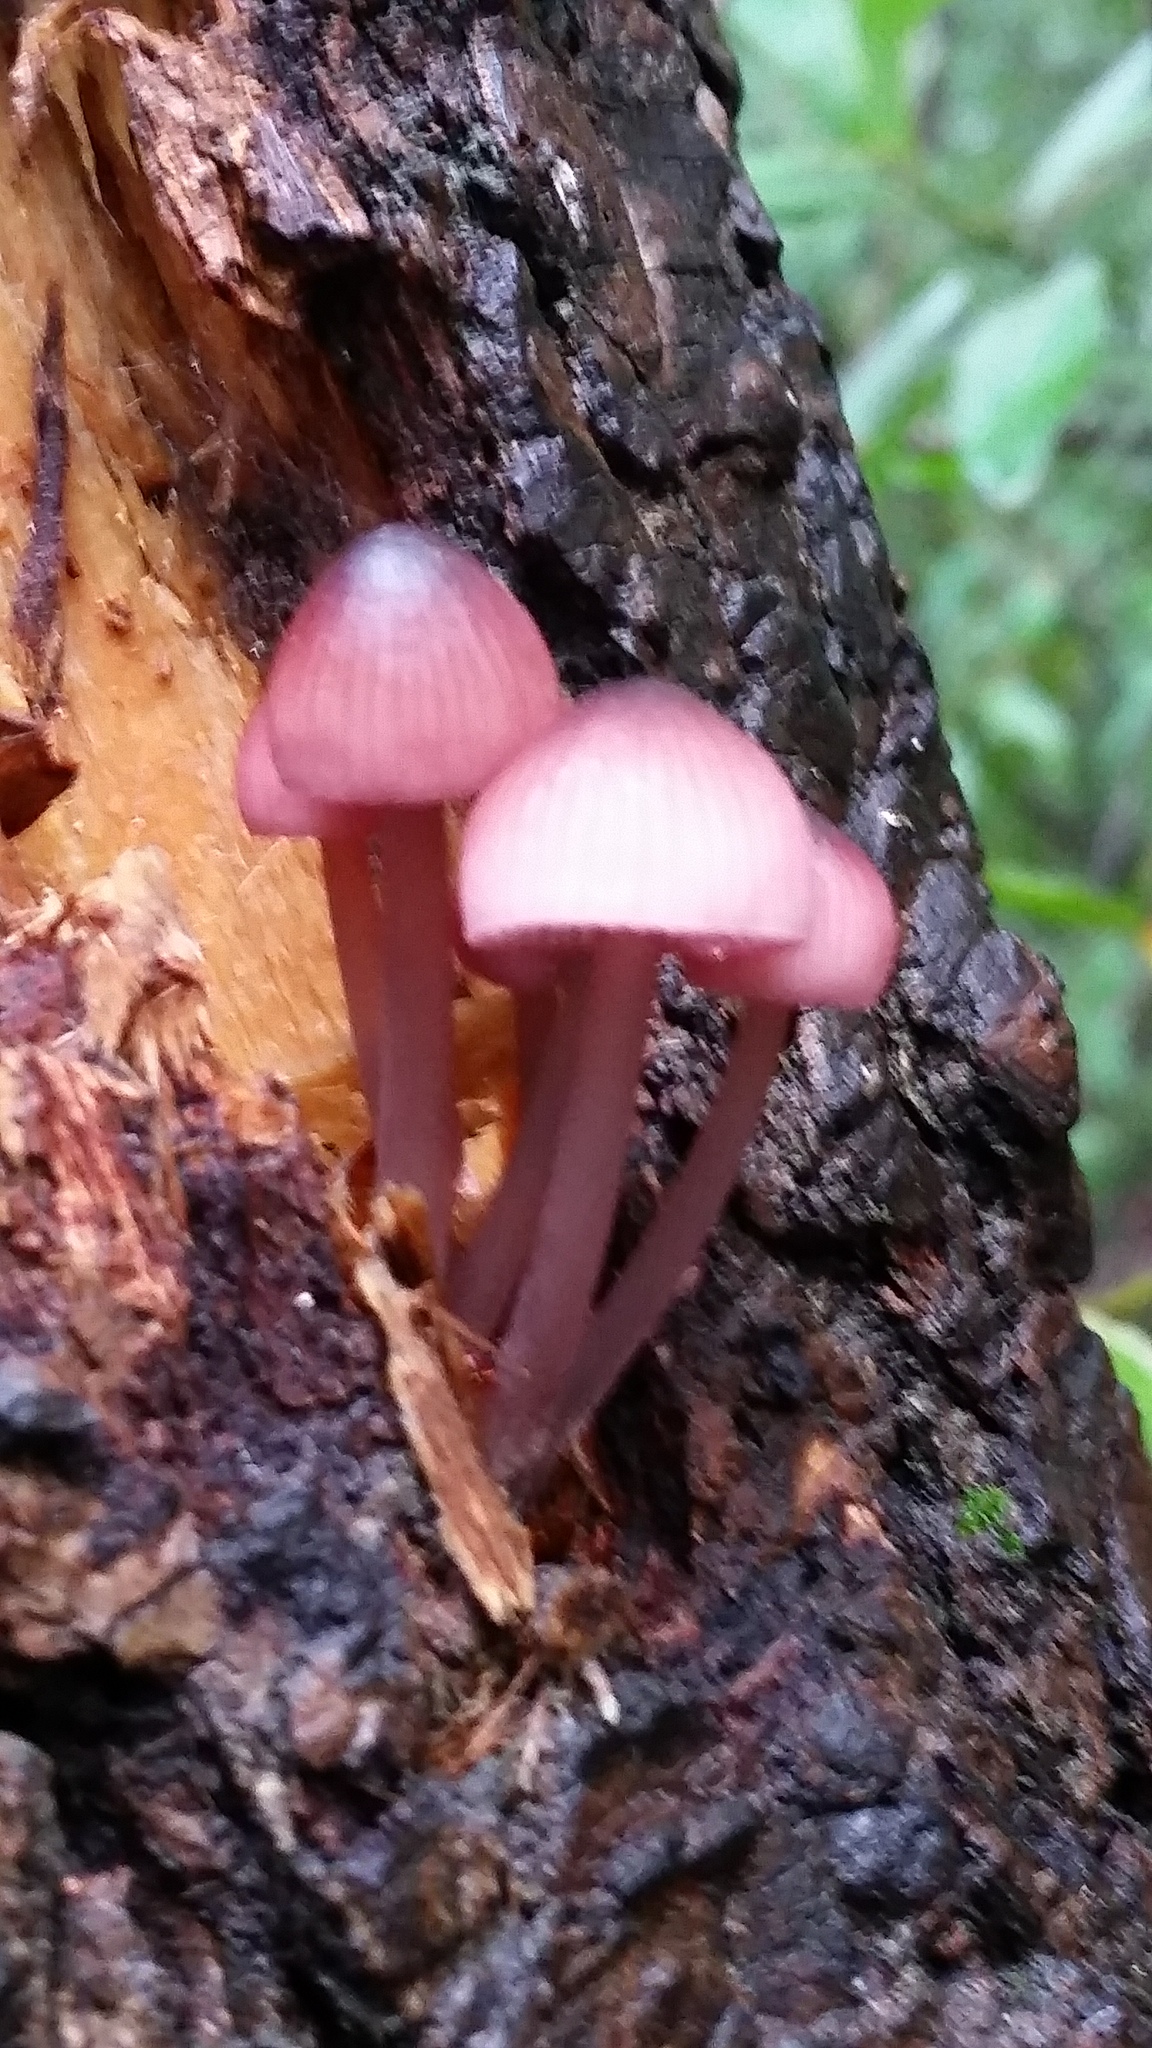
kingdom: Fungi
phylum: Basidiomycota
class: Agaricomycetes
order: Agaricales
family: Mycenaceae
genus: Mycena
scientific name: Mycena haematopus
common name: Burgundydrop bonnet
